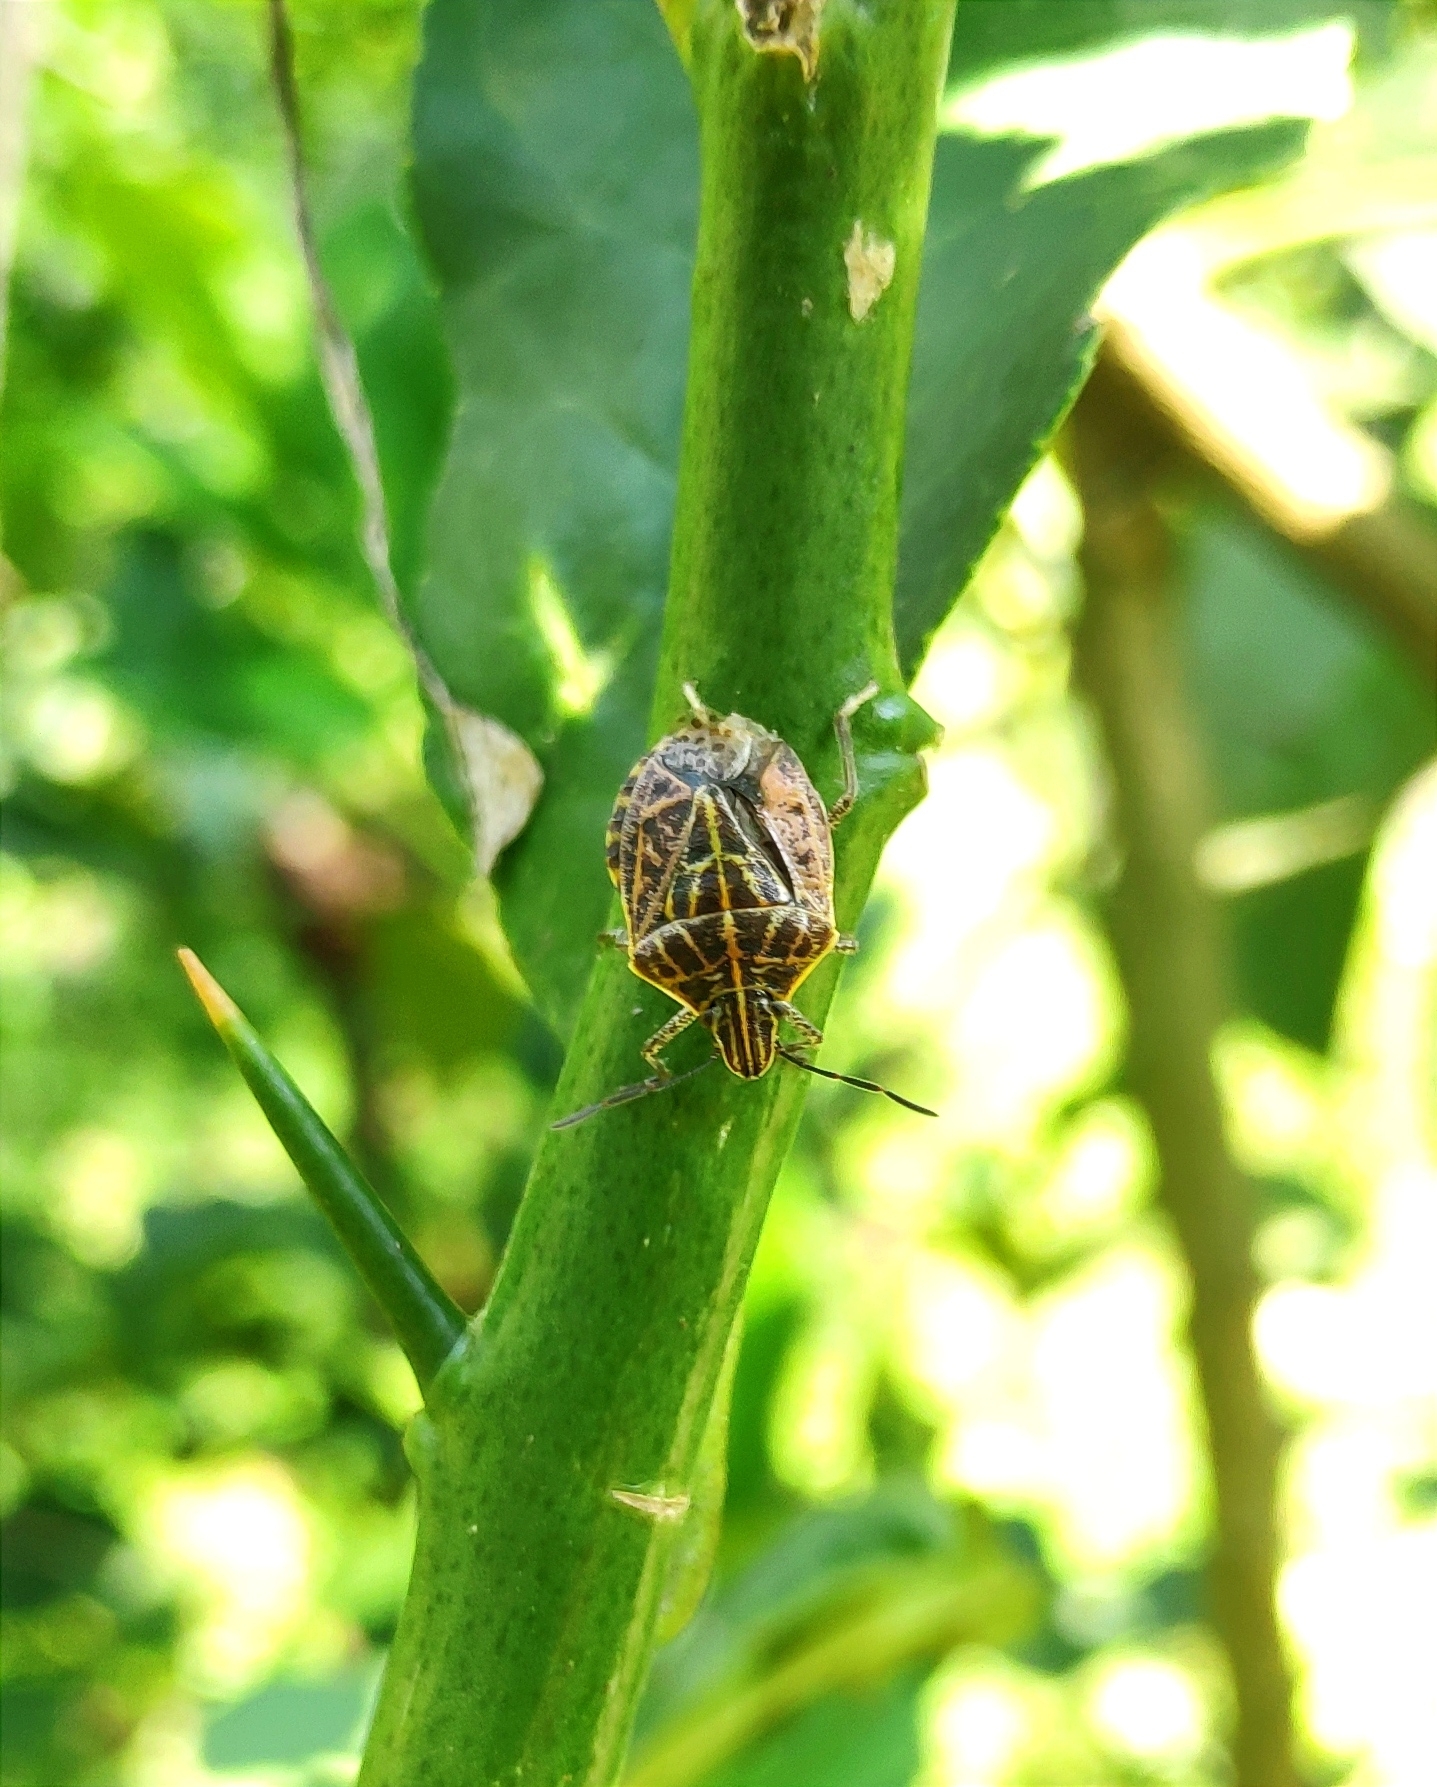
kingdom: Animalia
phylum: Arthropoda
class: Insecta
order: Hemiptera
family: Pentatomidae
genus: Cappaea
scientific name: Cappaea taprobanensis
